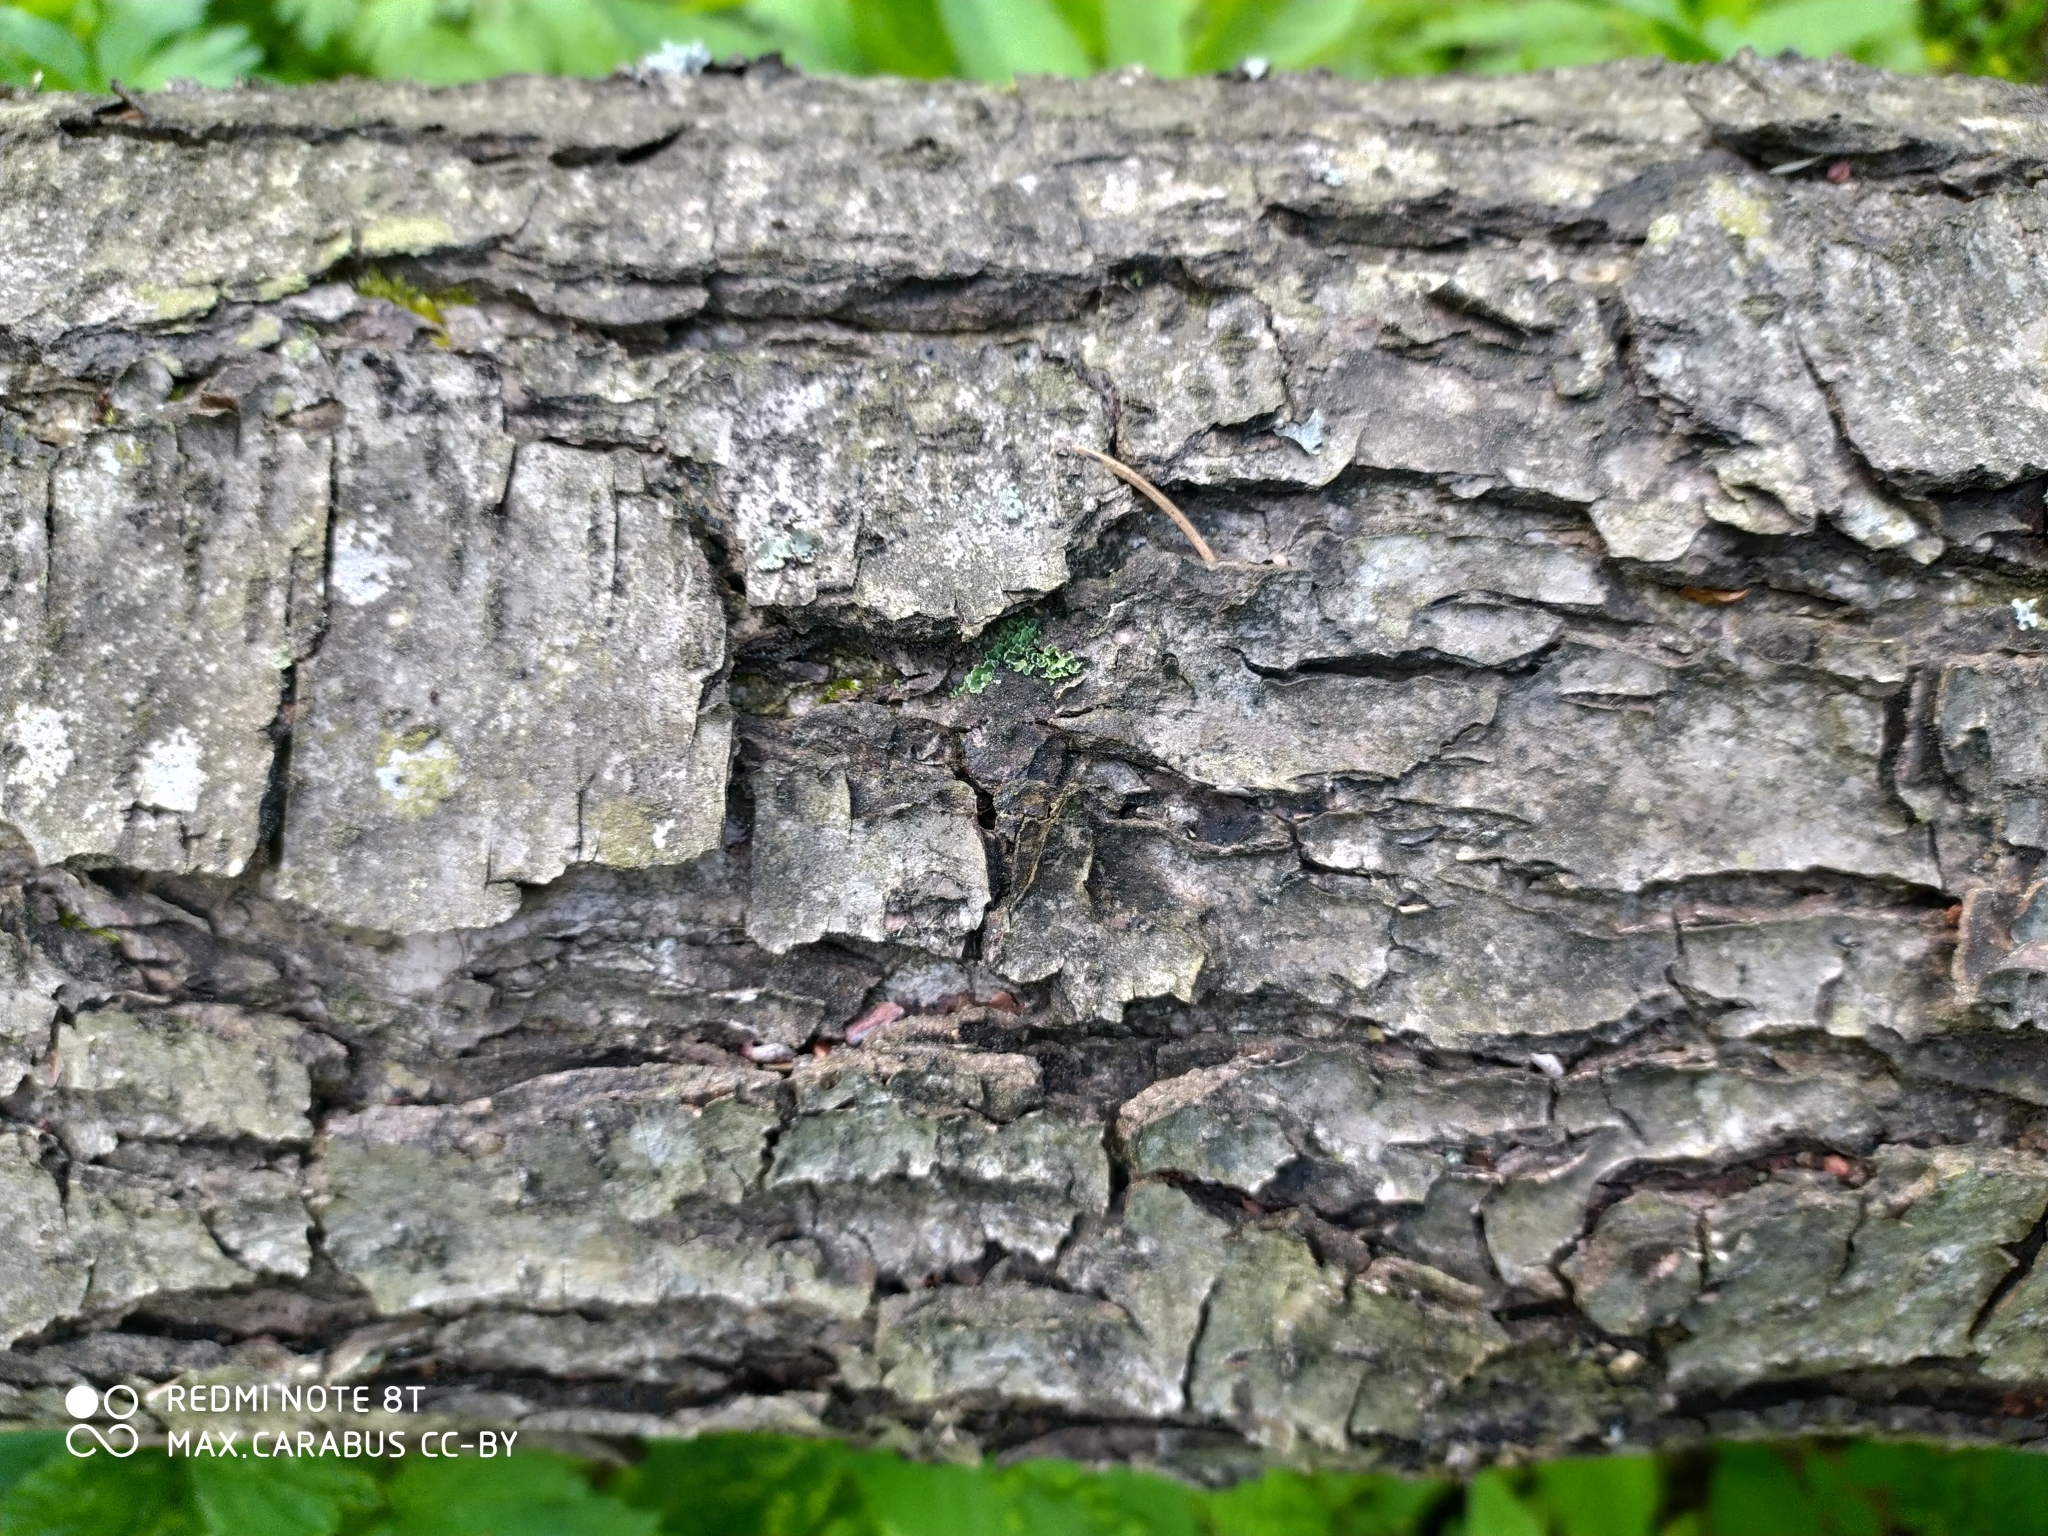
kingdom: Plantae
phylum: Tracheophyta
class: Magnoliopsida
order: Fagales
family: Betulaceae
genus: Alnus
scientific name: Alnus glutinosa
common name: Black alder
